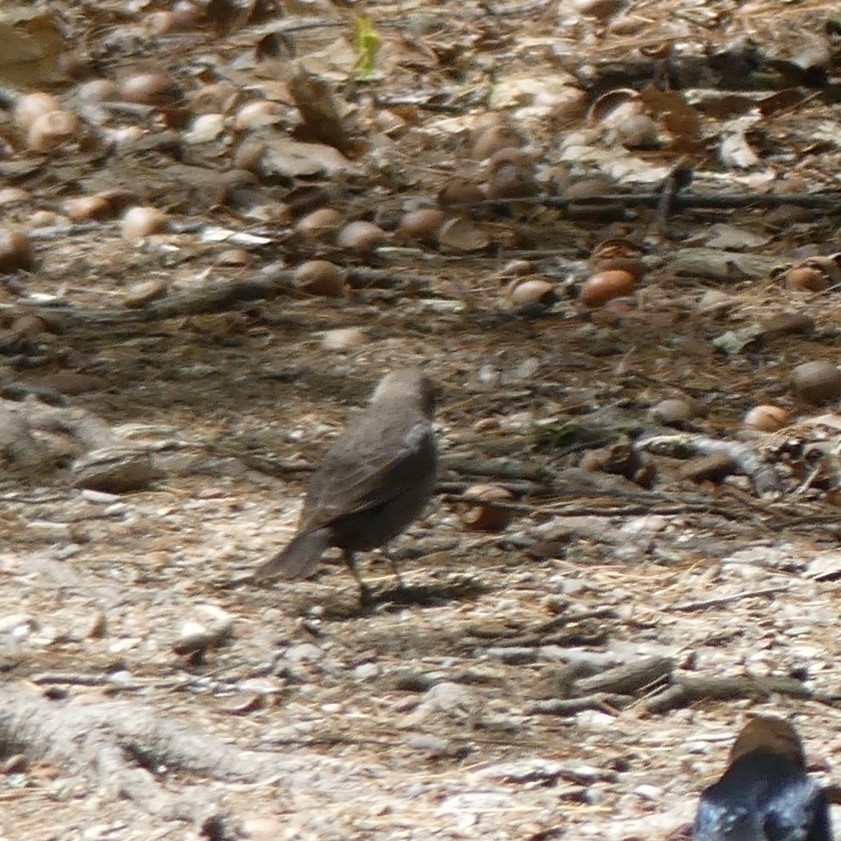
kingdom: Animalia
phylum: Chordata
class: Aves
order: Passeriformes
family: Icteridae
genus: Molothrus
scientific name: Molothrus ater
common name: Brown-headed cowbird
